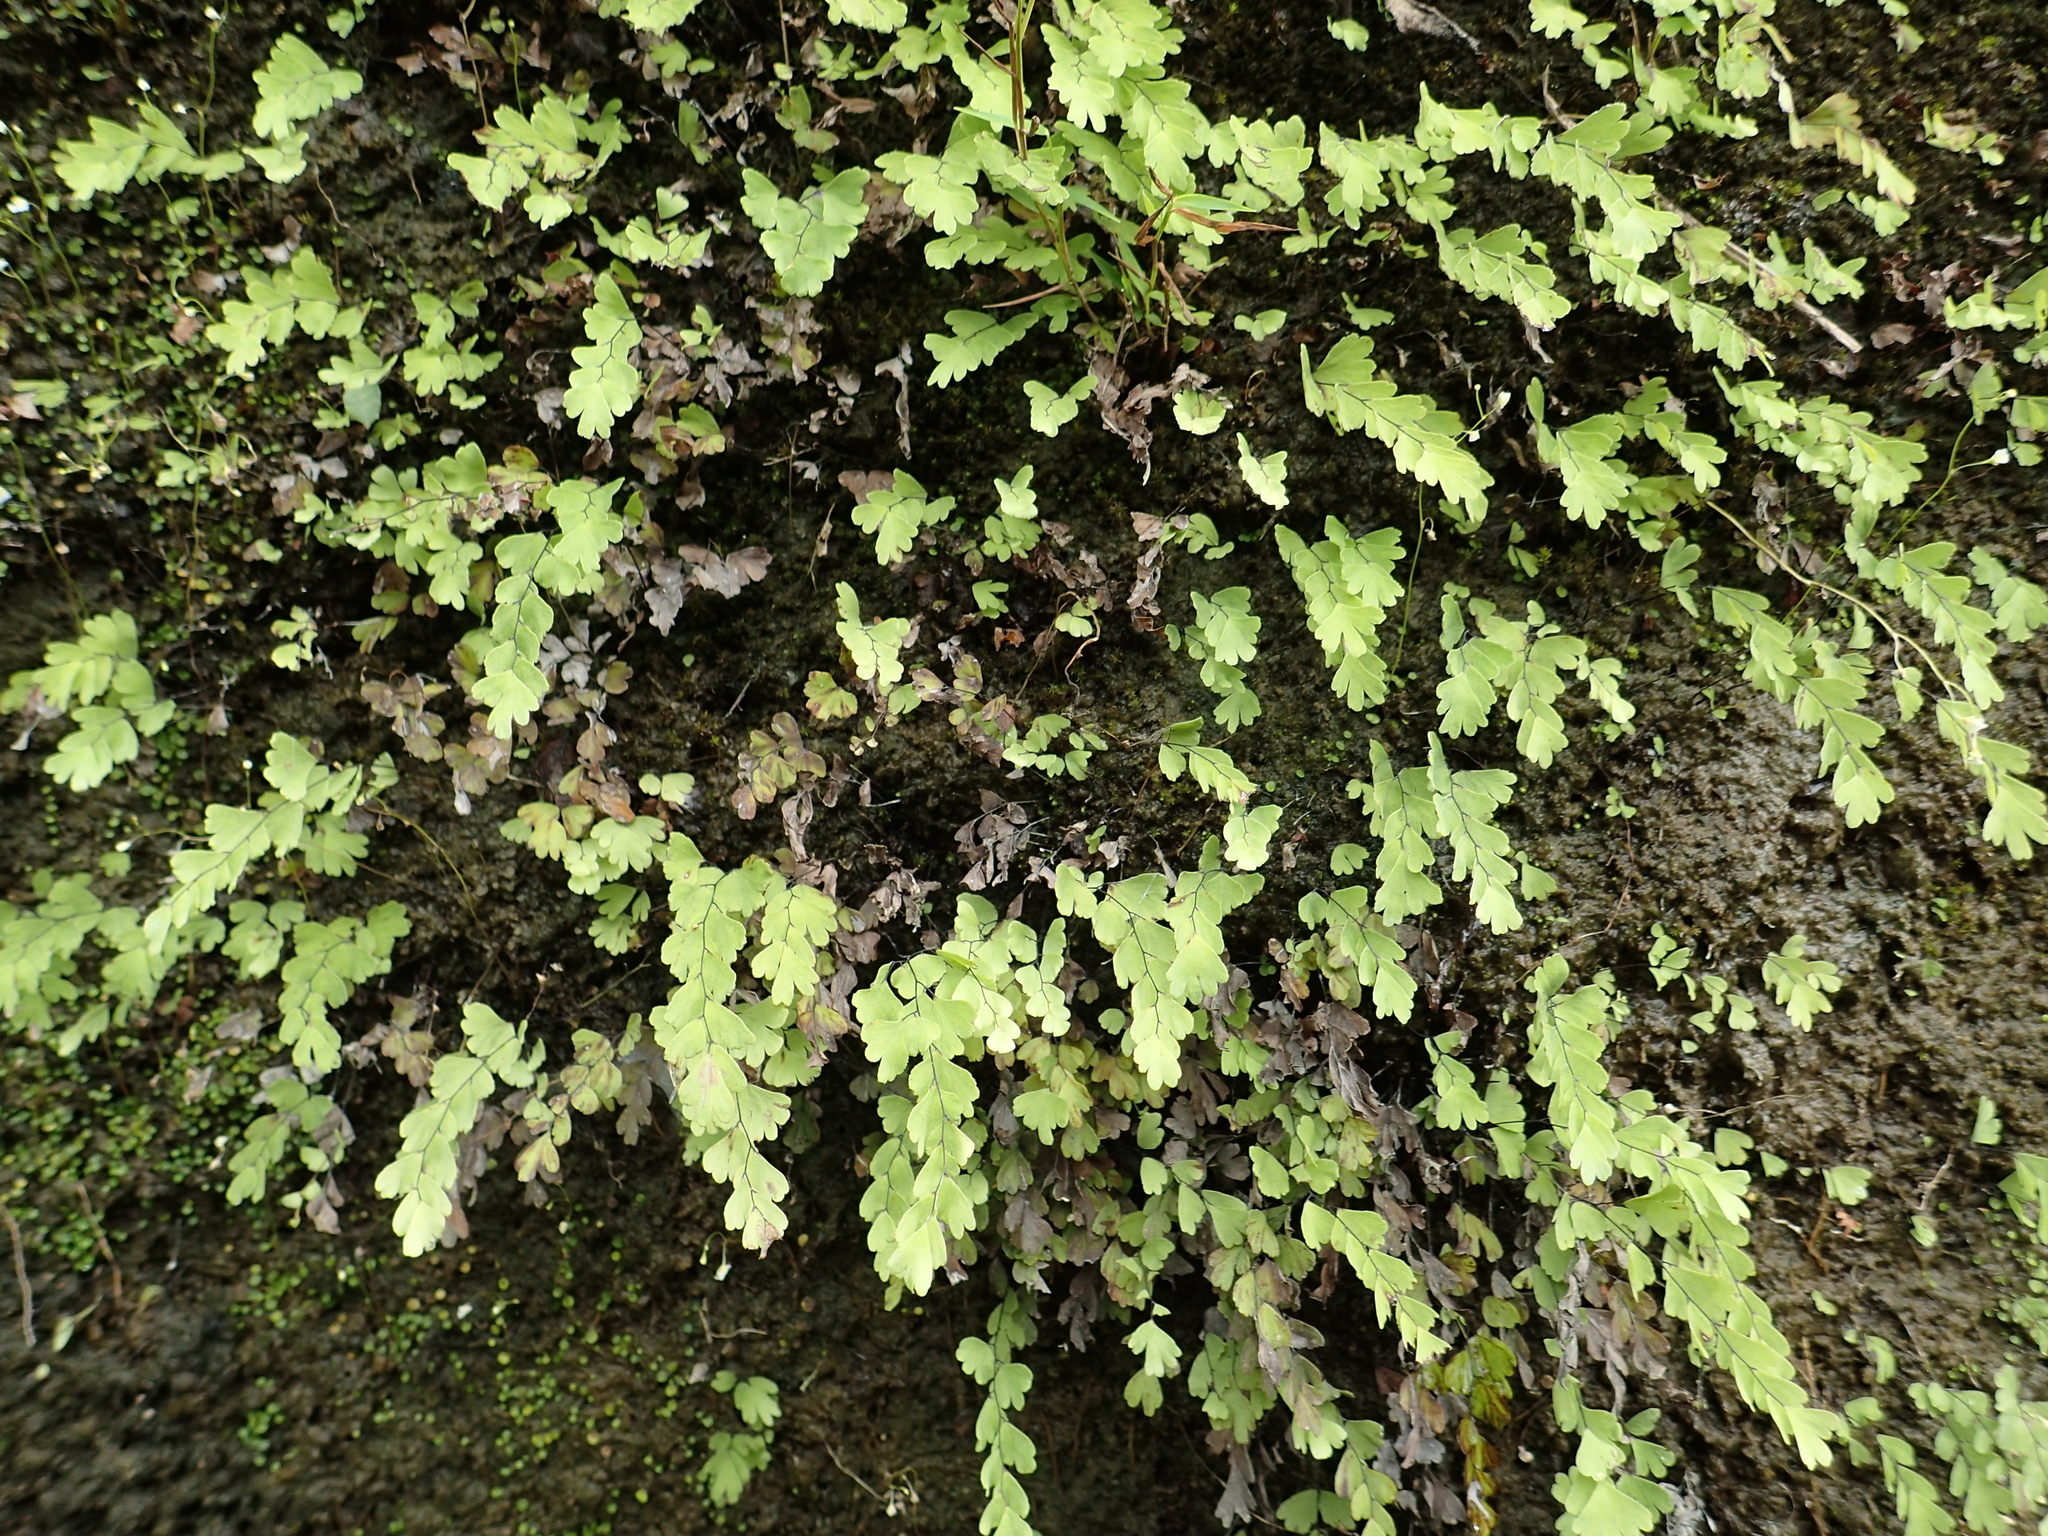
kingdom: Plantae
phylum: Tracheophyta
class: Polypodiopsida
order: Polypodiales
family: Pteridaceae
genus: Adiantum
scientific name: Adiantum capillus-veneris
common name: Maidenhair fern
